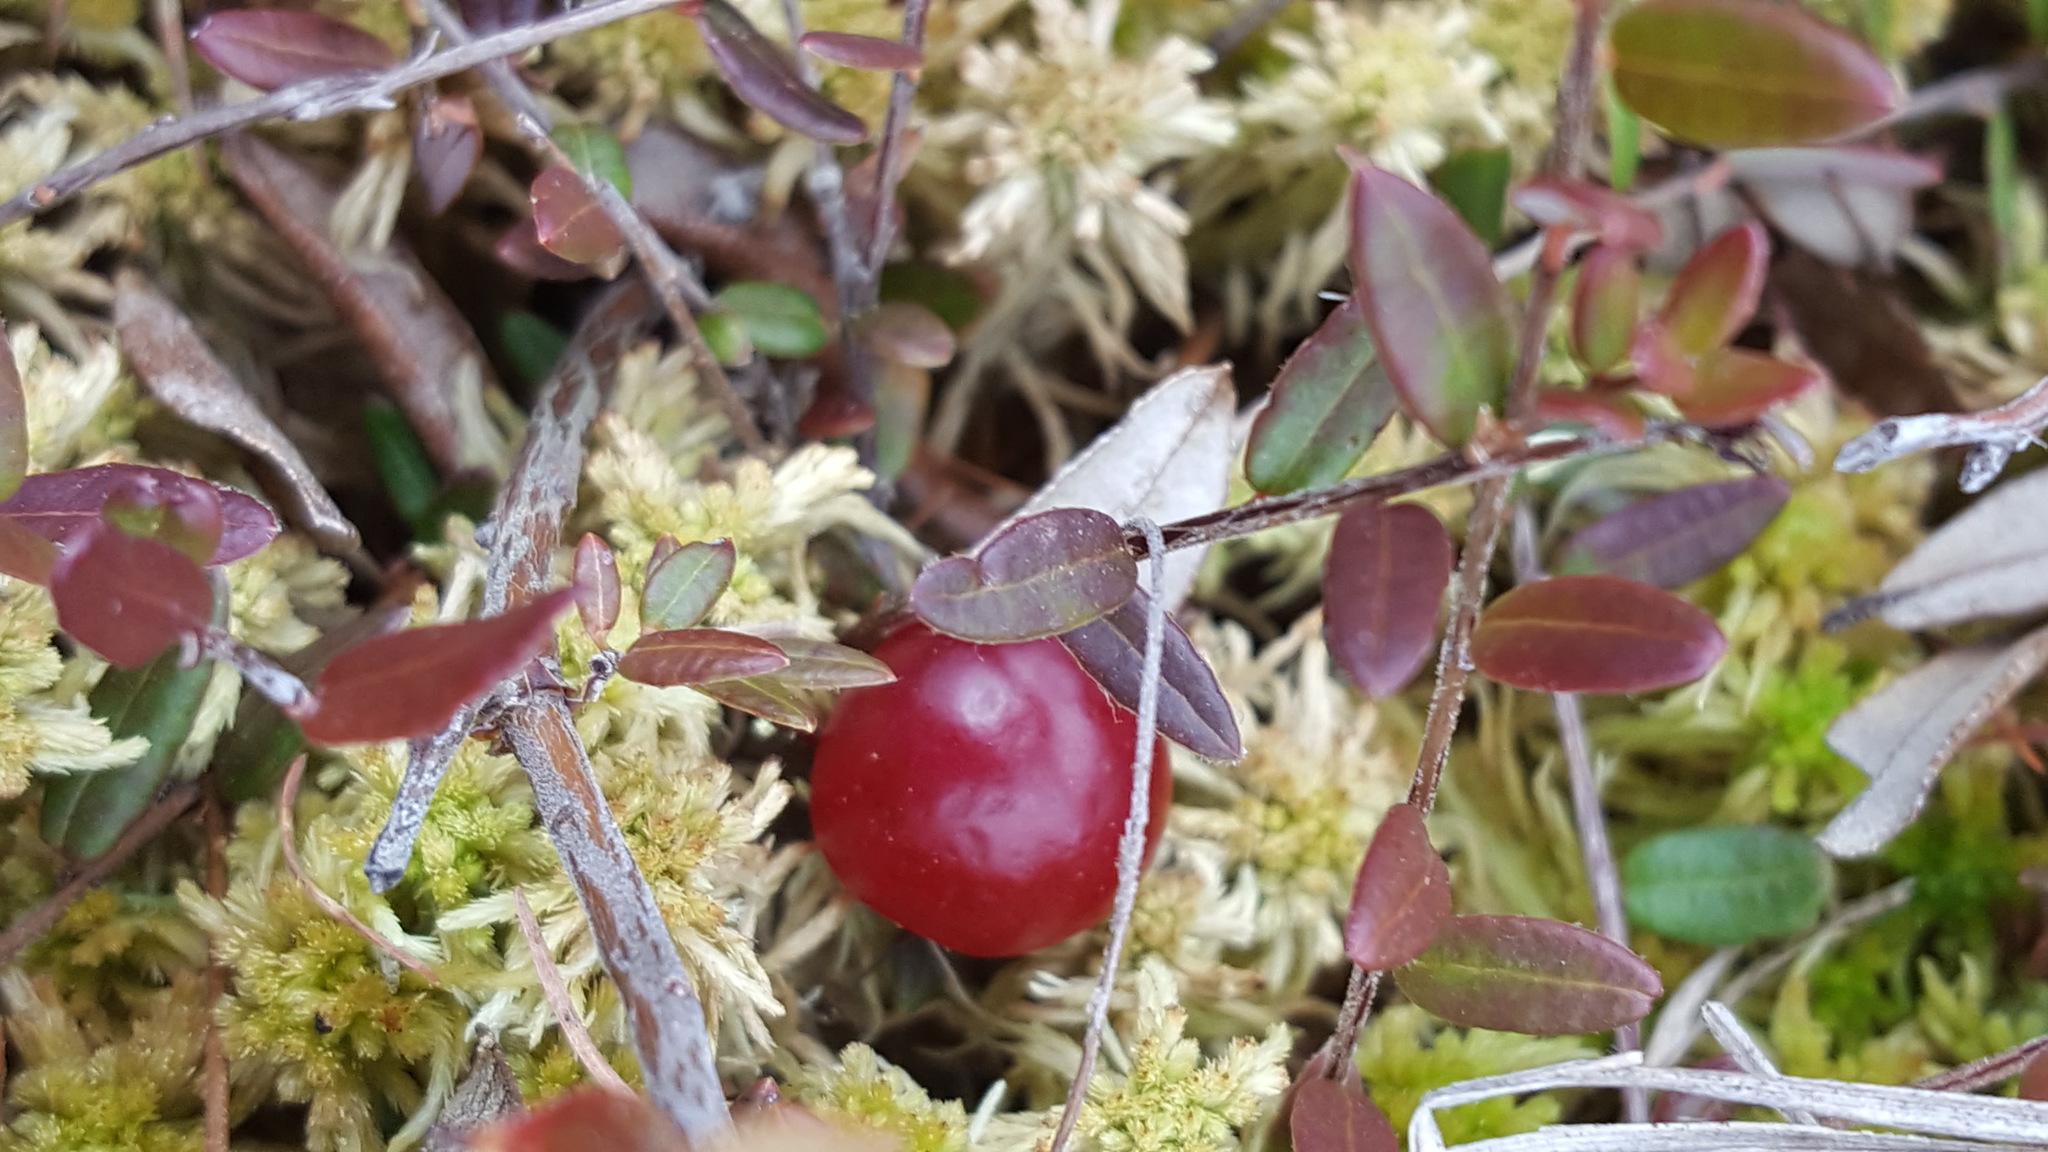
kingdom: Plantae
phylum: Tracheophyta
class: Magnoliopsida
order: Ericales
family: Ericaceae
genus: Vaccinium
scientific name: Vaccinium oxycoccos
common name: Cranberry
